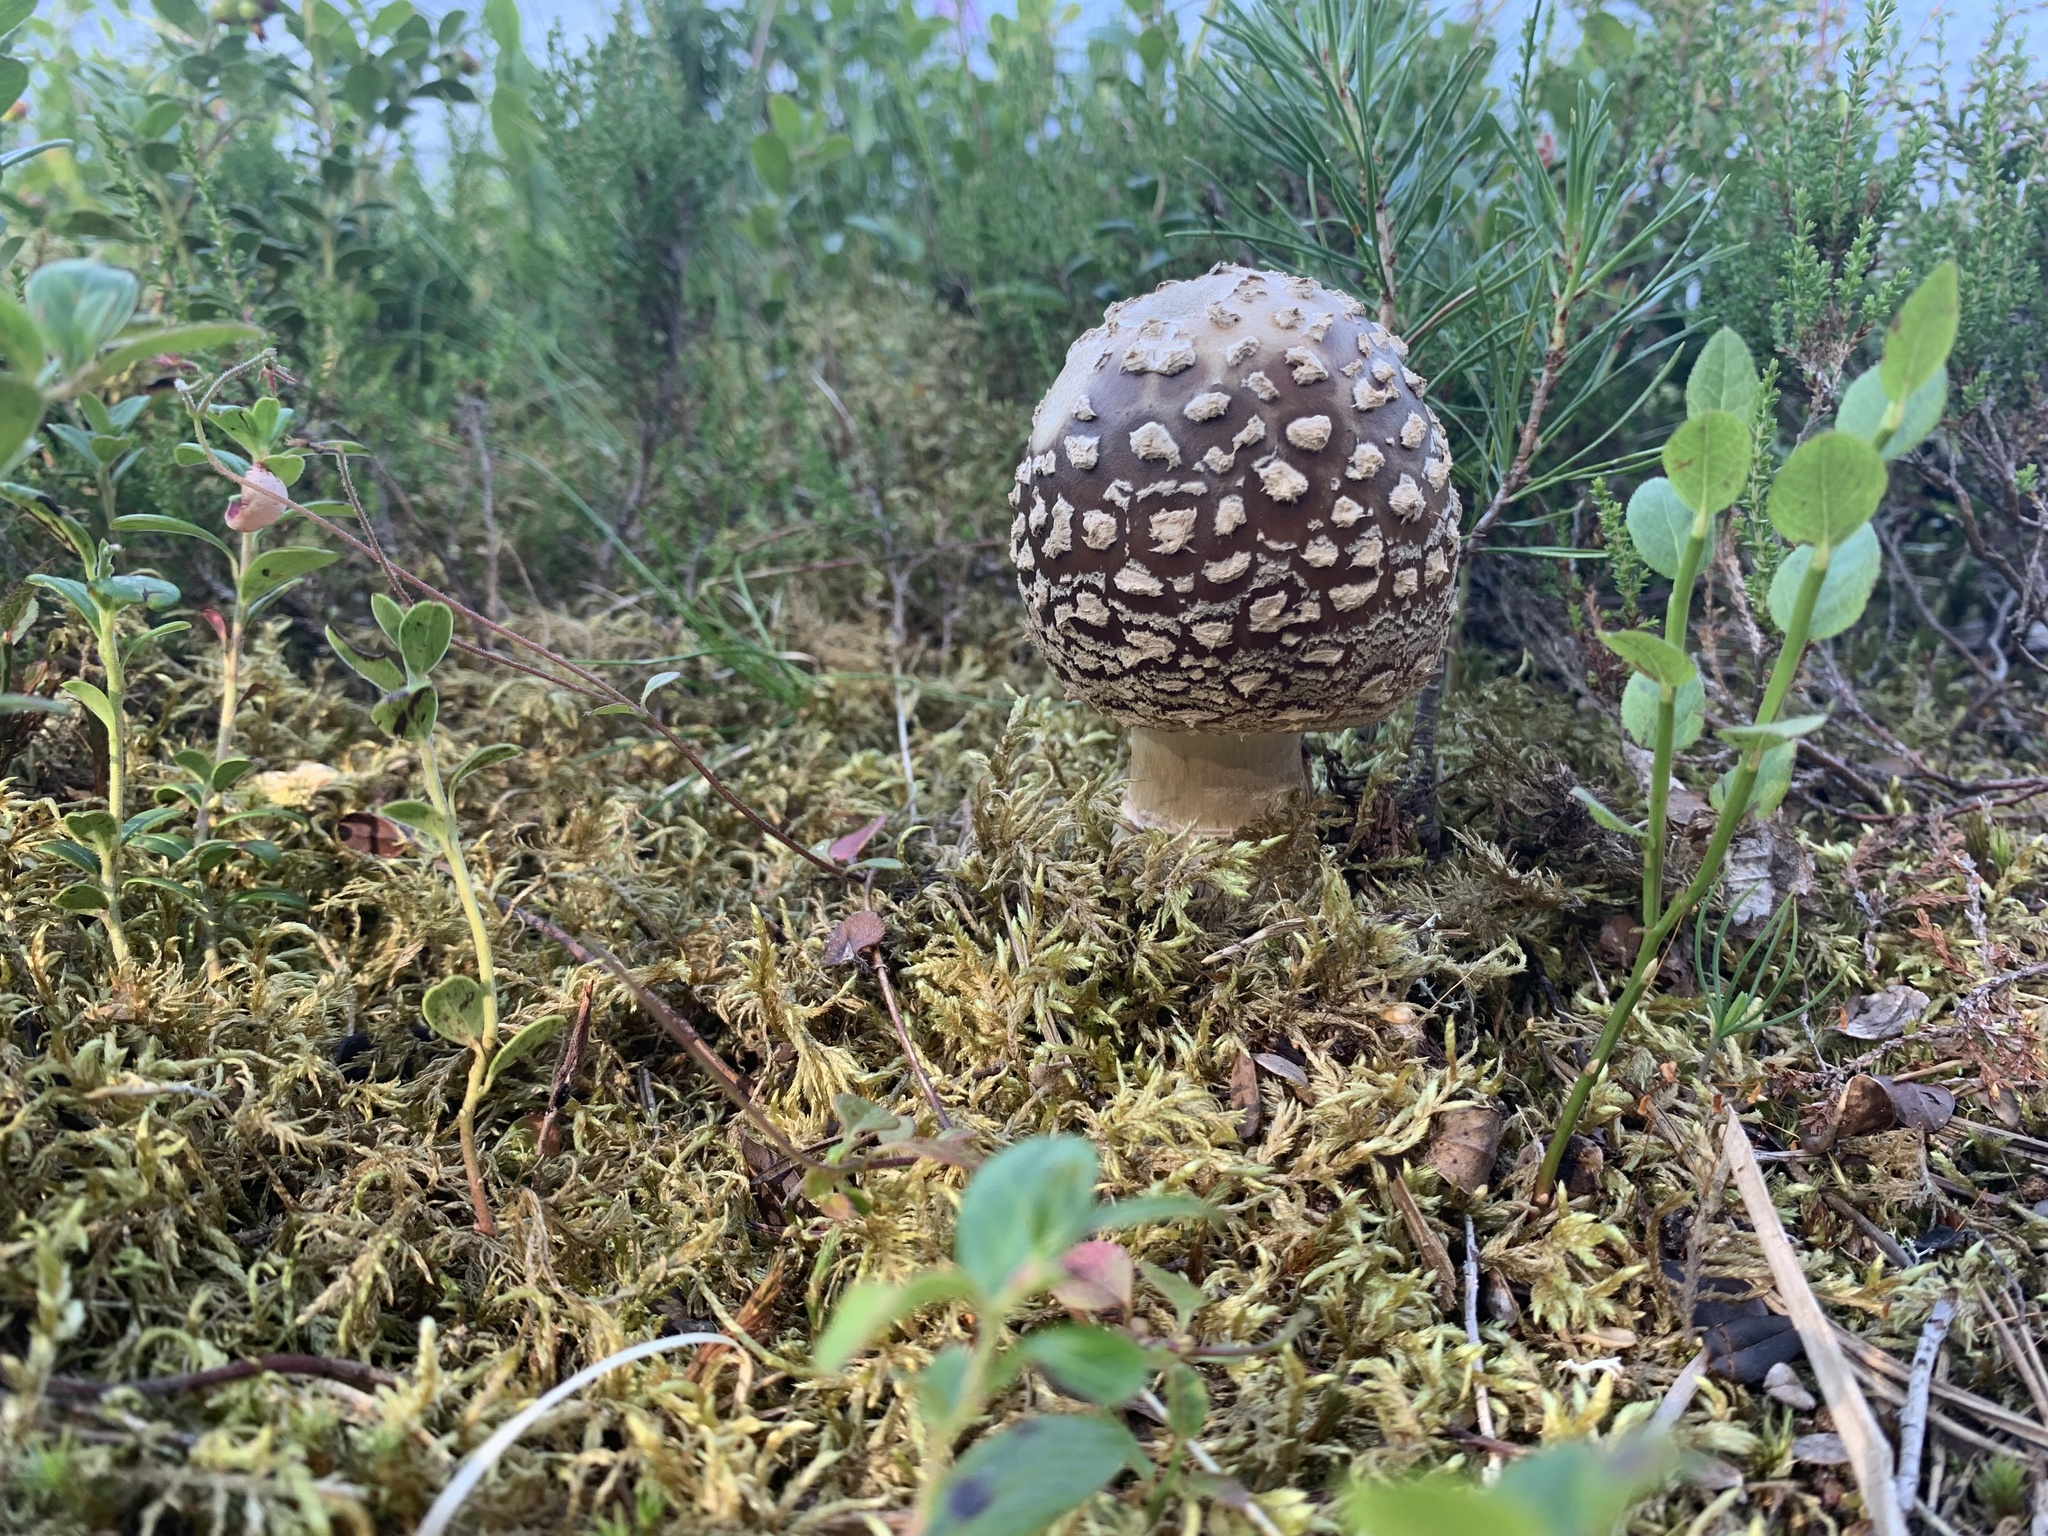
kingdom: Fungi
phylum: Basidiomycota
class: Agaricomycetes
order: Agaricales
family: Amanitaceae
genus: Amanita
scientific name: Amanita regalis
